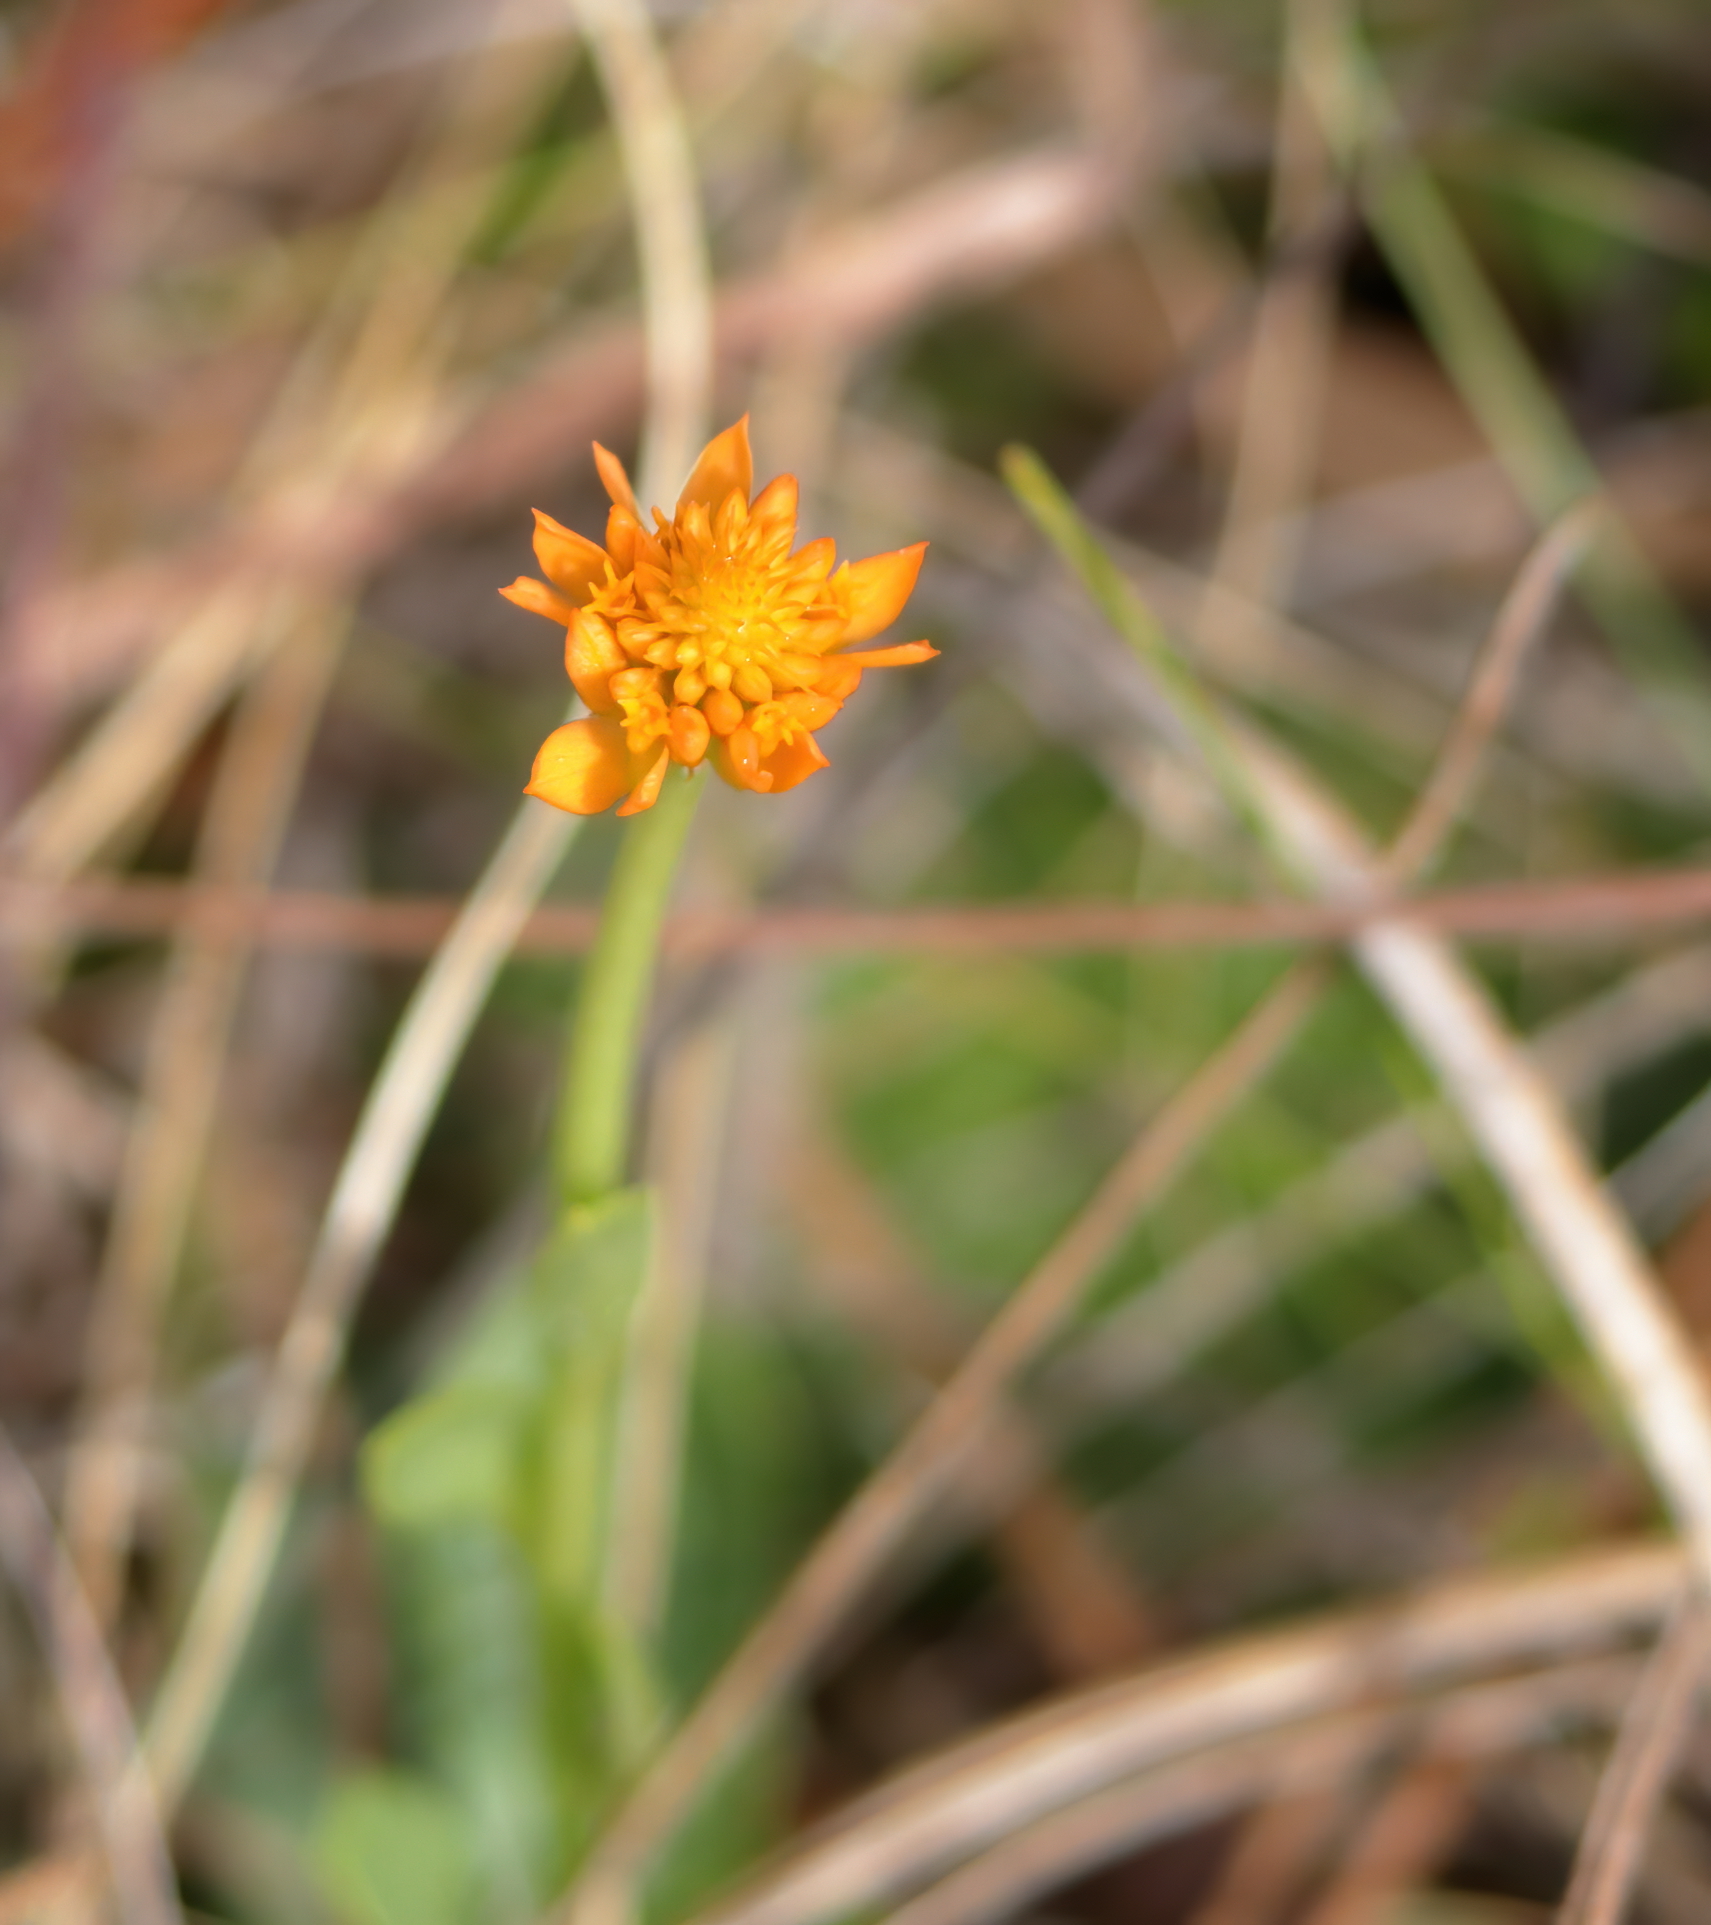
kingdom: Plantae
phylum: Tracheophyta
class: Magnoliopsida
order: Fabales
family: Polygalaceae
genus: Polygala
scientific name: Polygala lutea
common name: Orange milkwort
